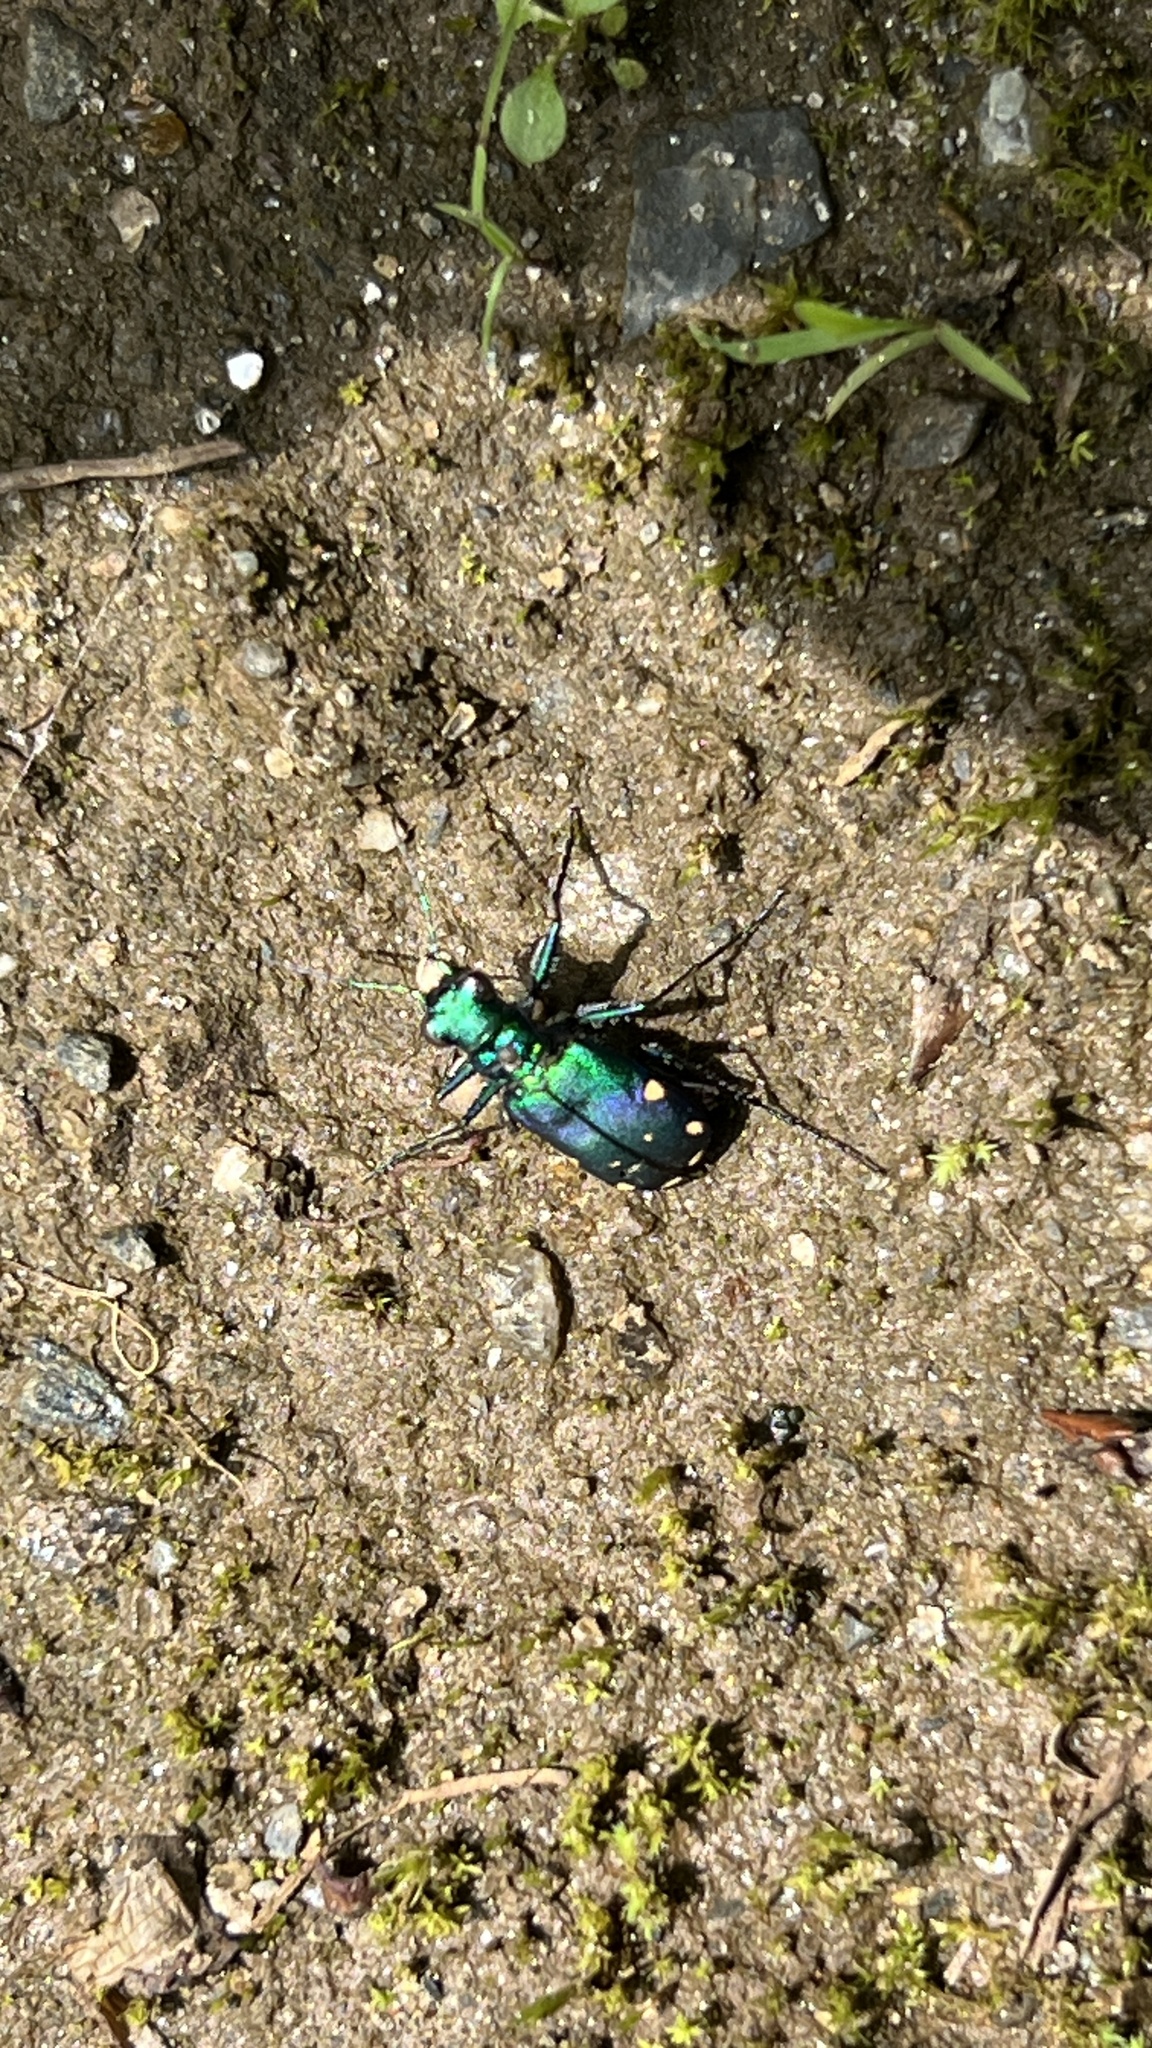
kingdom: Animalia
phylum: Arthropoda
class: Insecta
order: Coleoptera
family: Carabidae
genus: Cicindela
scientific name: Cicindela sexguttata
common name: Six-spotted tiger beetle
